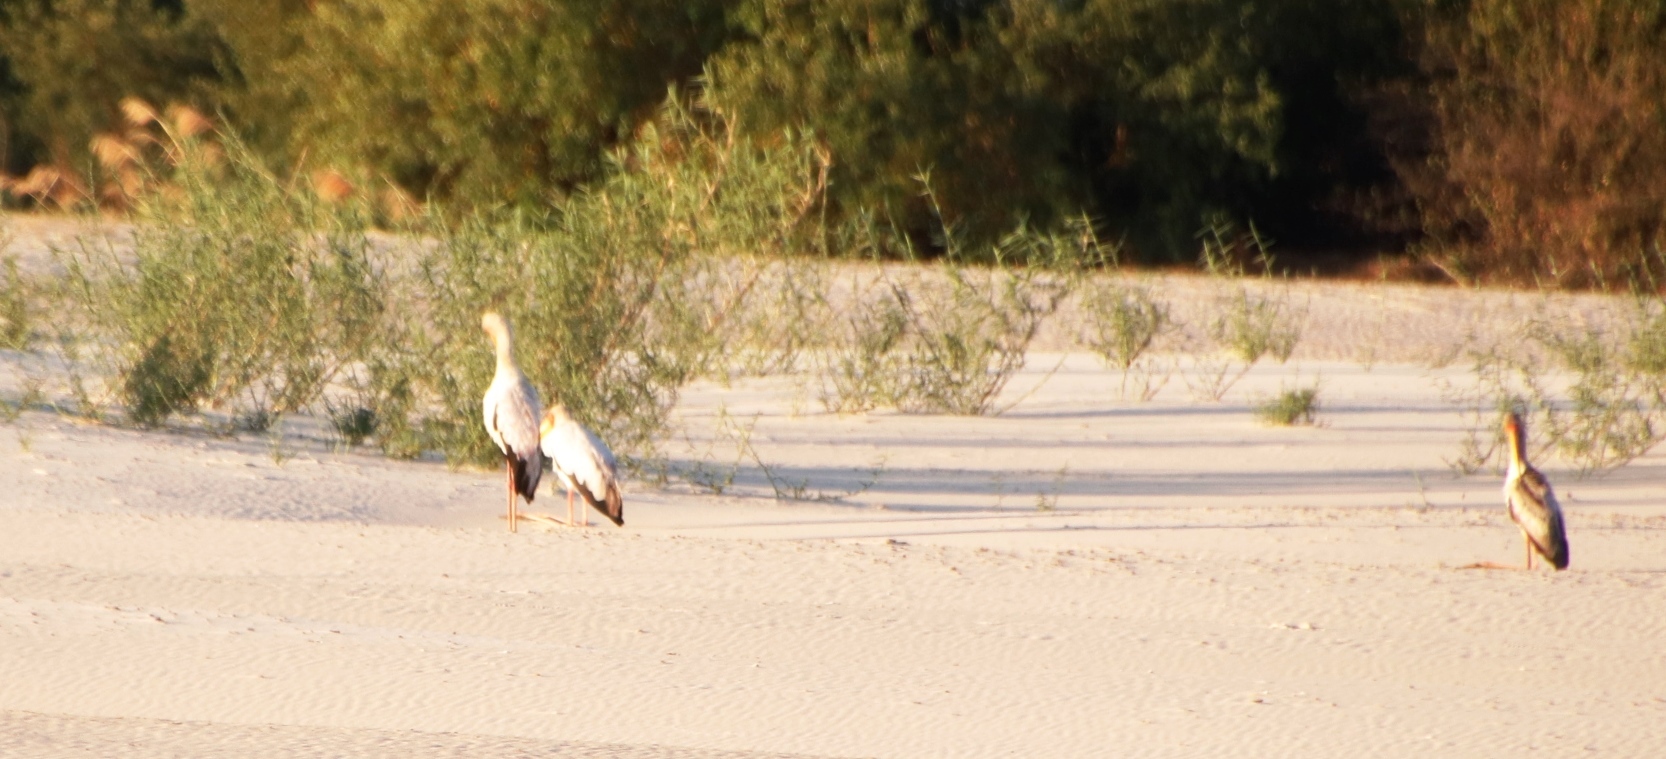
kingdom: Animalia
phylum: Chordata
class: Aves
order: Ciconiiformes
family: Ciconiidae
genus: Mycteria
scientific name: Mycteria ibis
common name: Yellow-billed stork
